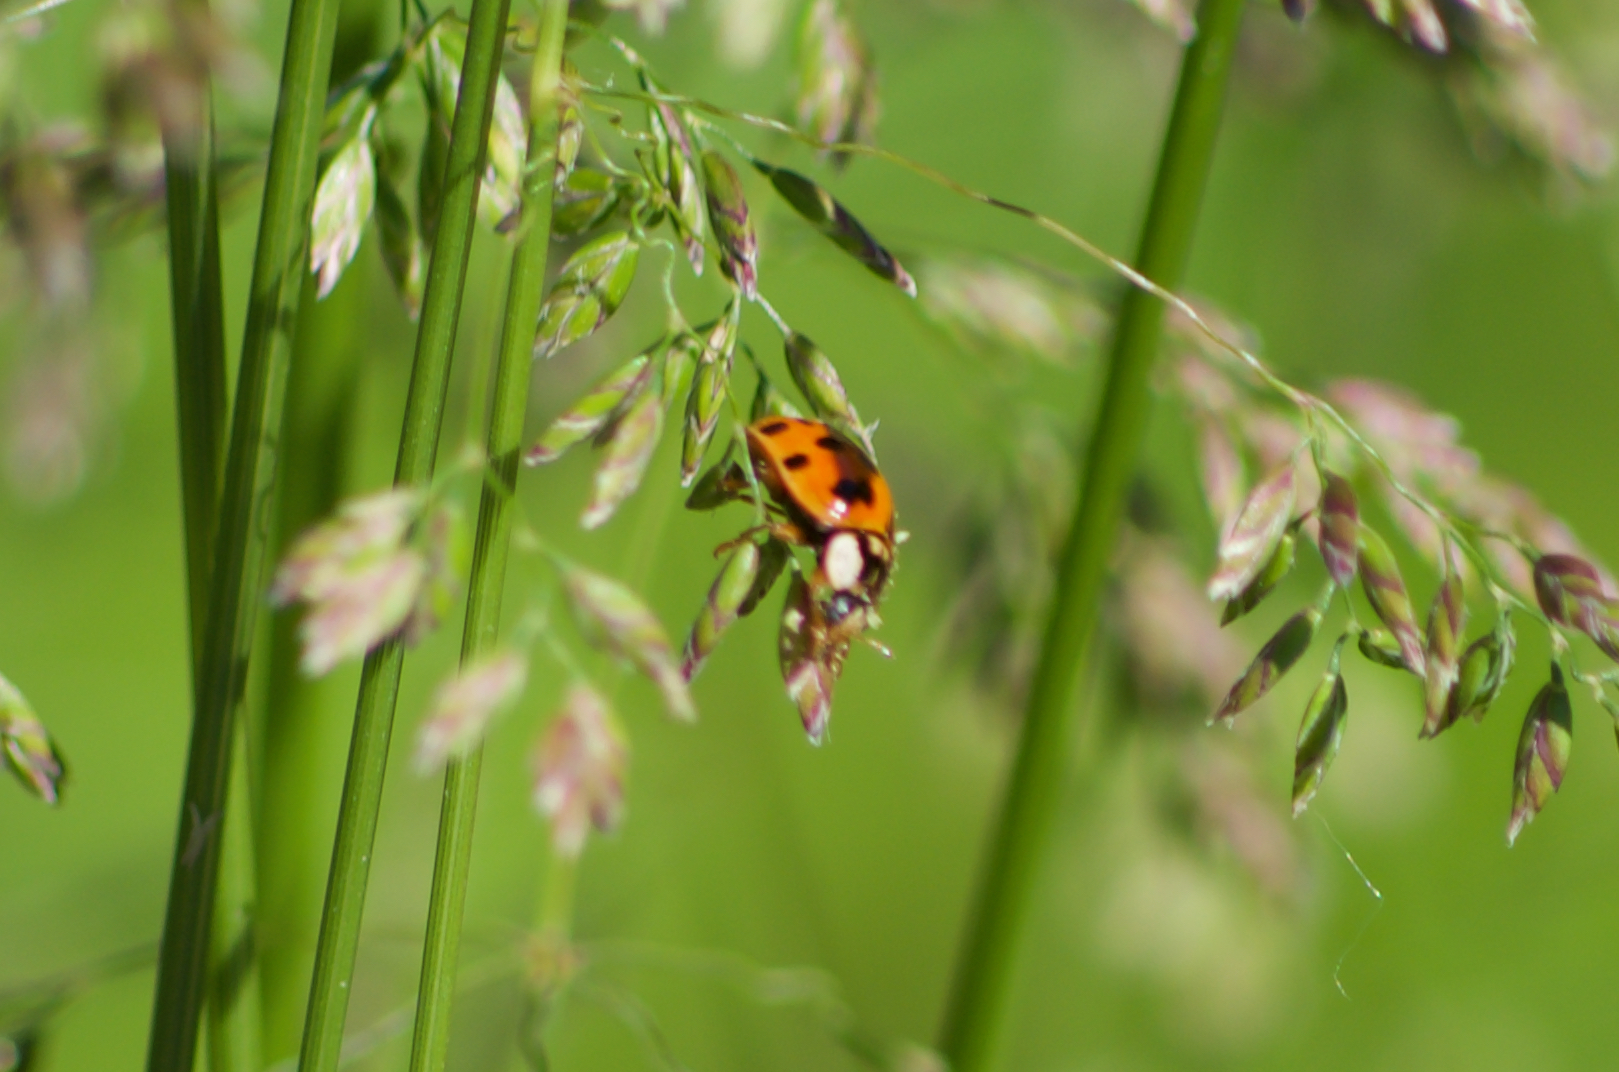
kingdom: Animalia
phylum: Arthropoda
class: Insecta
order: Coleoptera
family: Coccinellidae
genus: Harmonia
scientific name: Harmonia axyridis
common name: Harlequin ladybird
